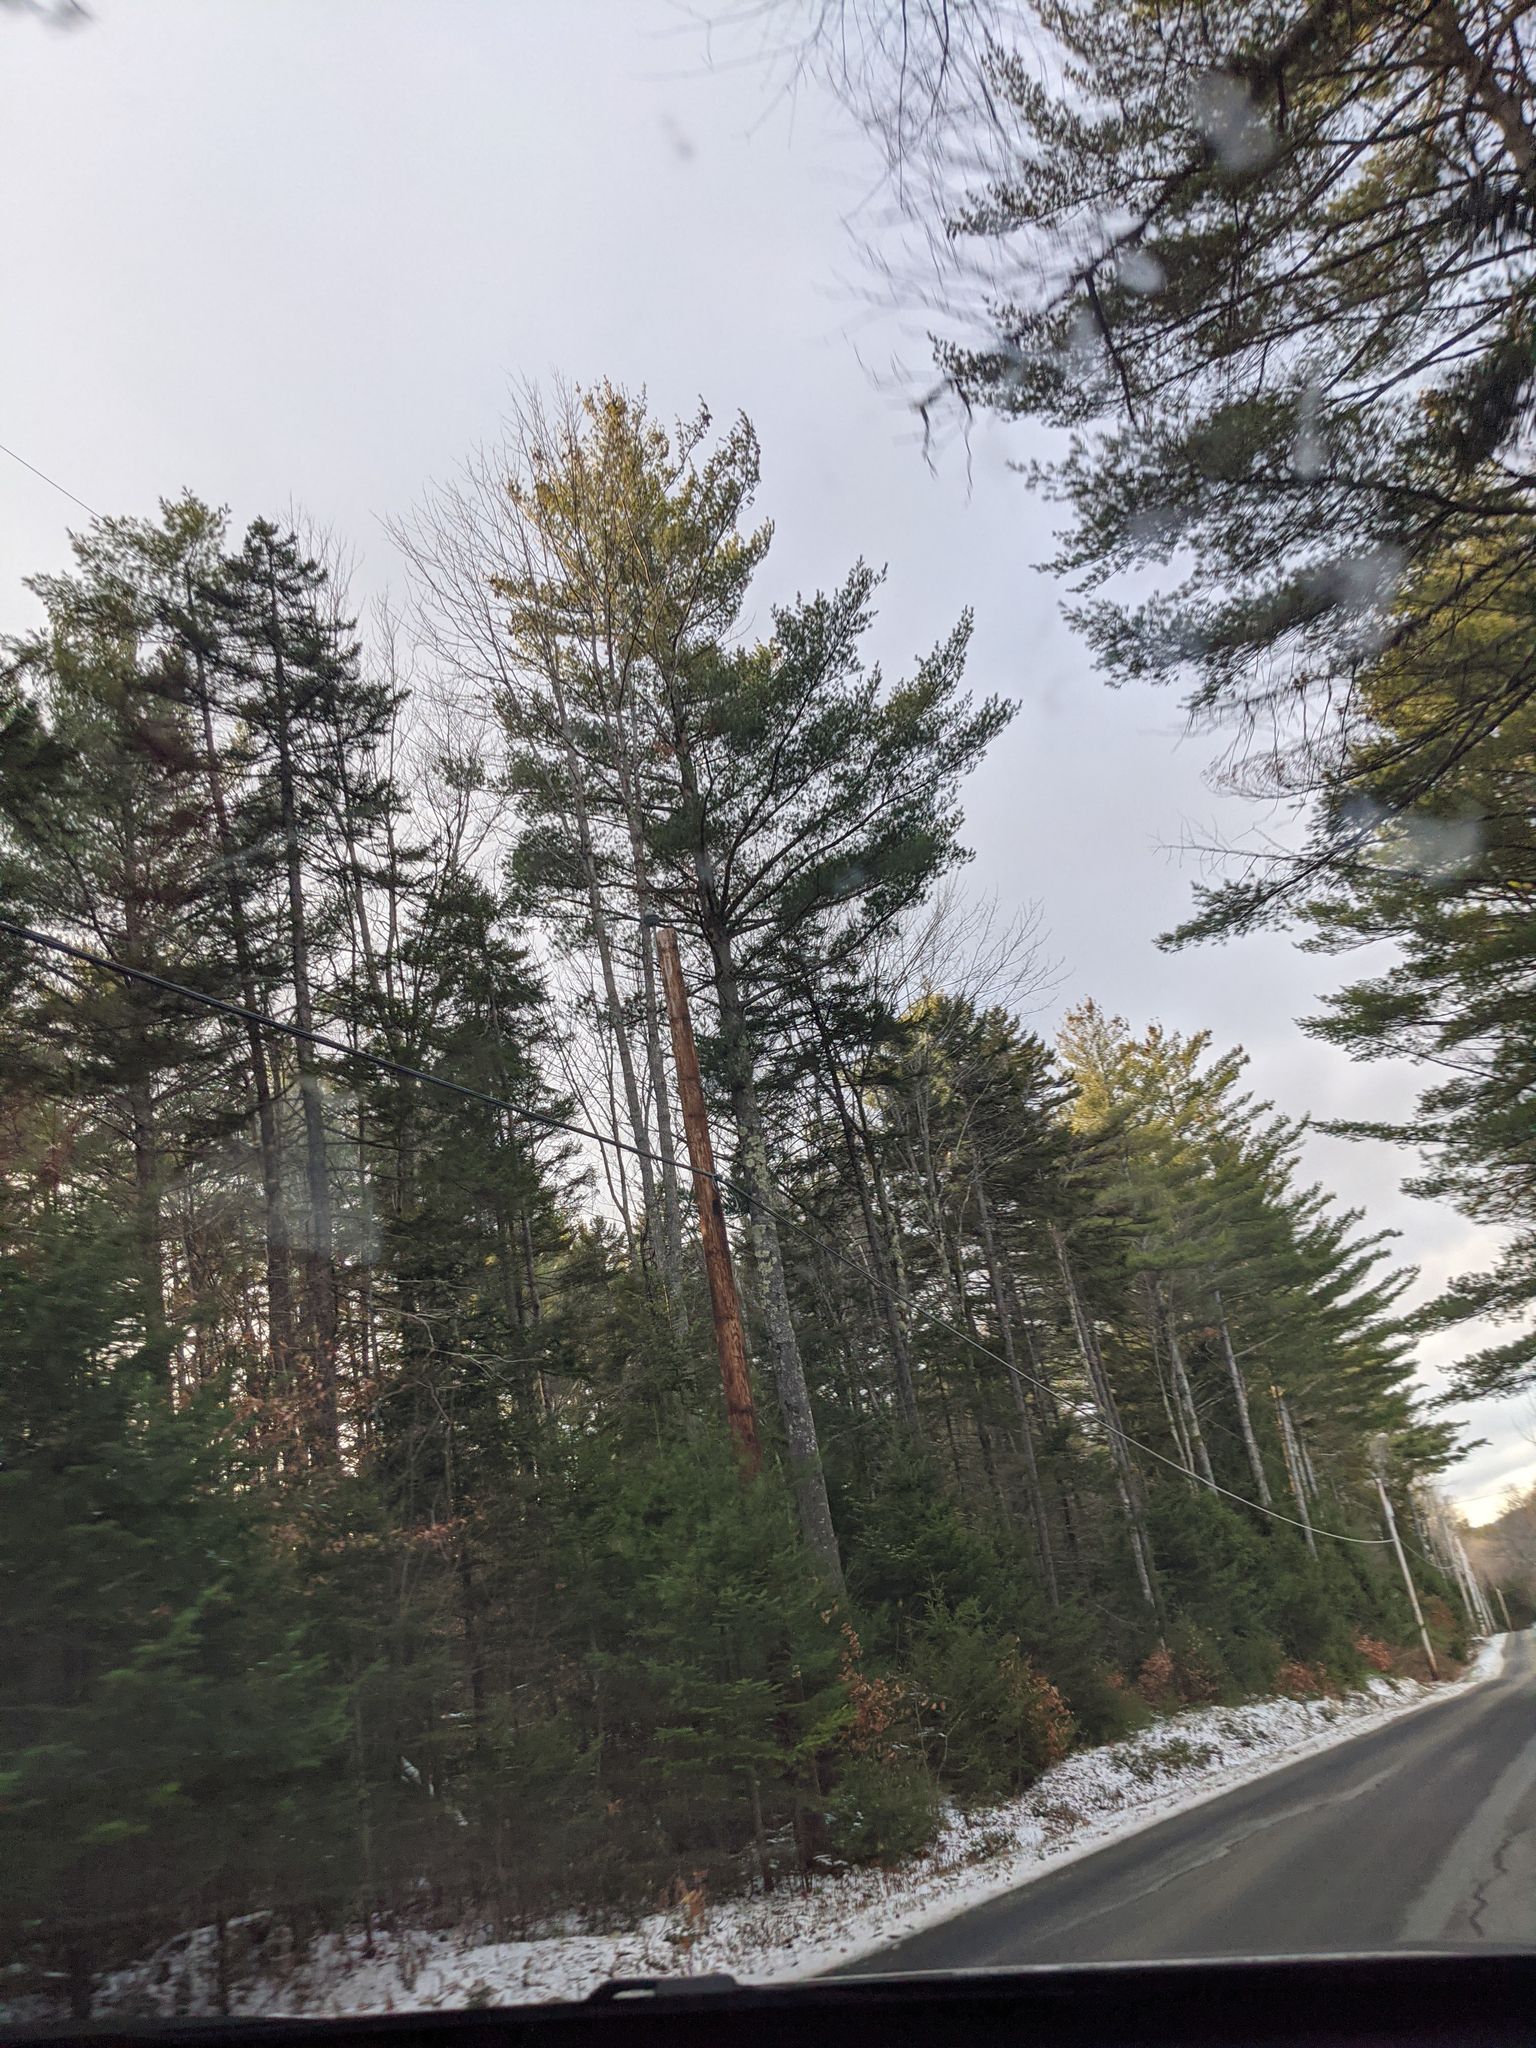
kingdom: Plantae
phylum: Tracheophyta
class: Pinopsida
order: Pinales
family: Pinaceae
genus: Pinus
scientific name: Pinus strobus
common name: Weymouth pine
